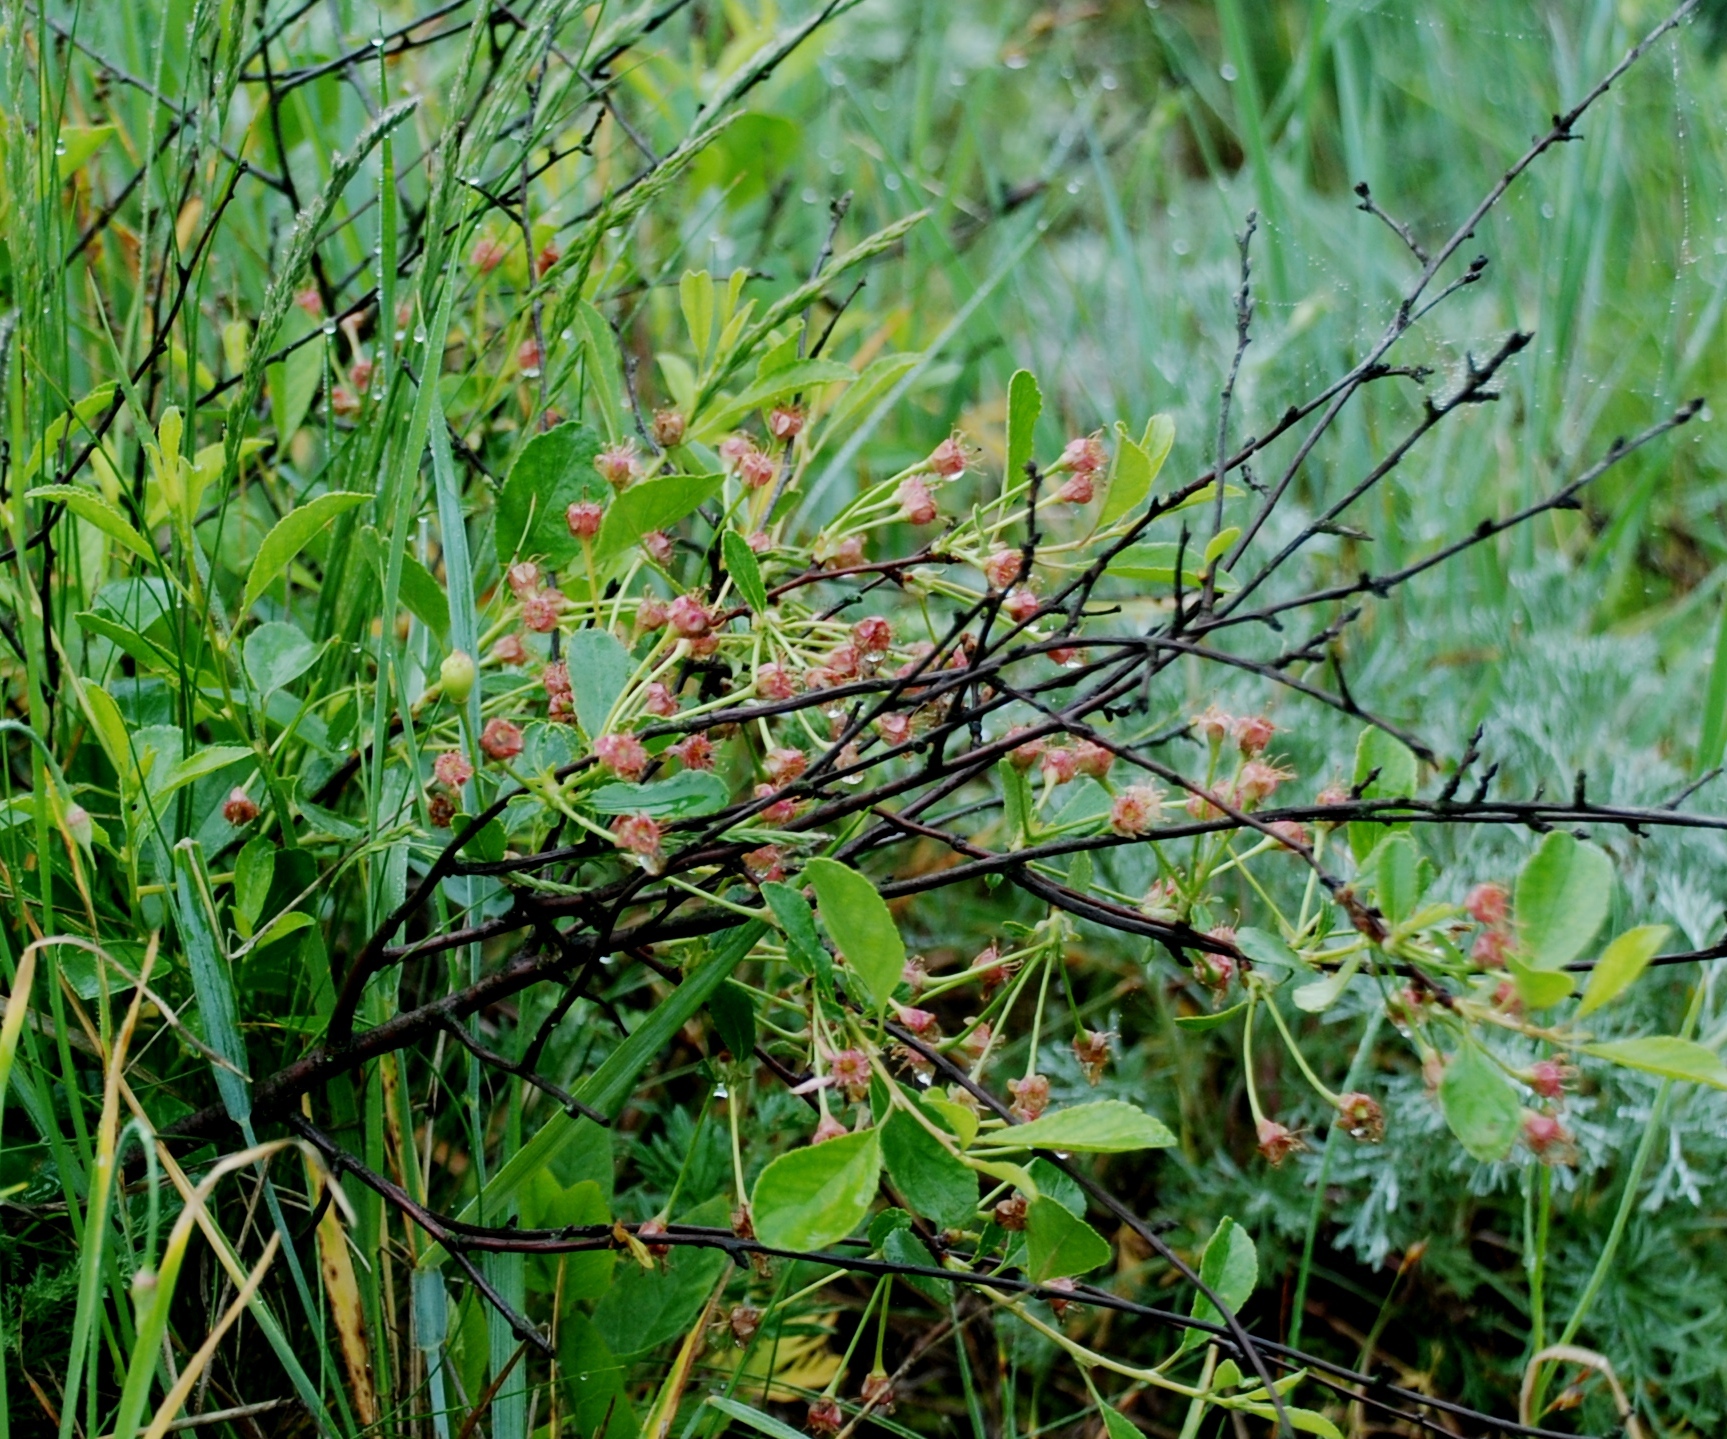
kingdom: Plantae
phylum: Tracheophyta
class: Magnoliopsida
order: Rosales
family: Rosaceae
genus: Prunus
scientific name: Prunus fruticosa
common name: European dwarf cherry
